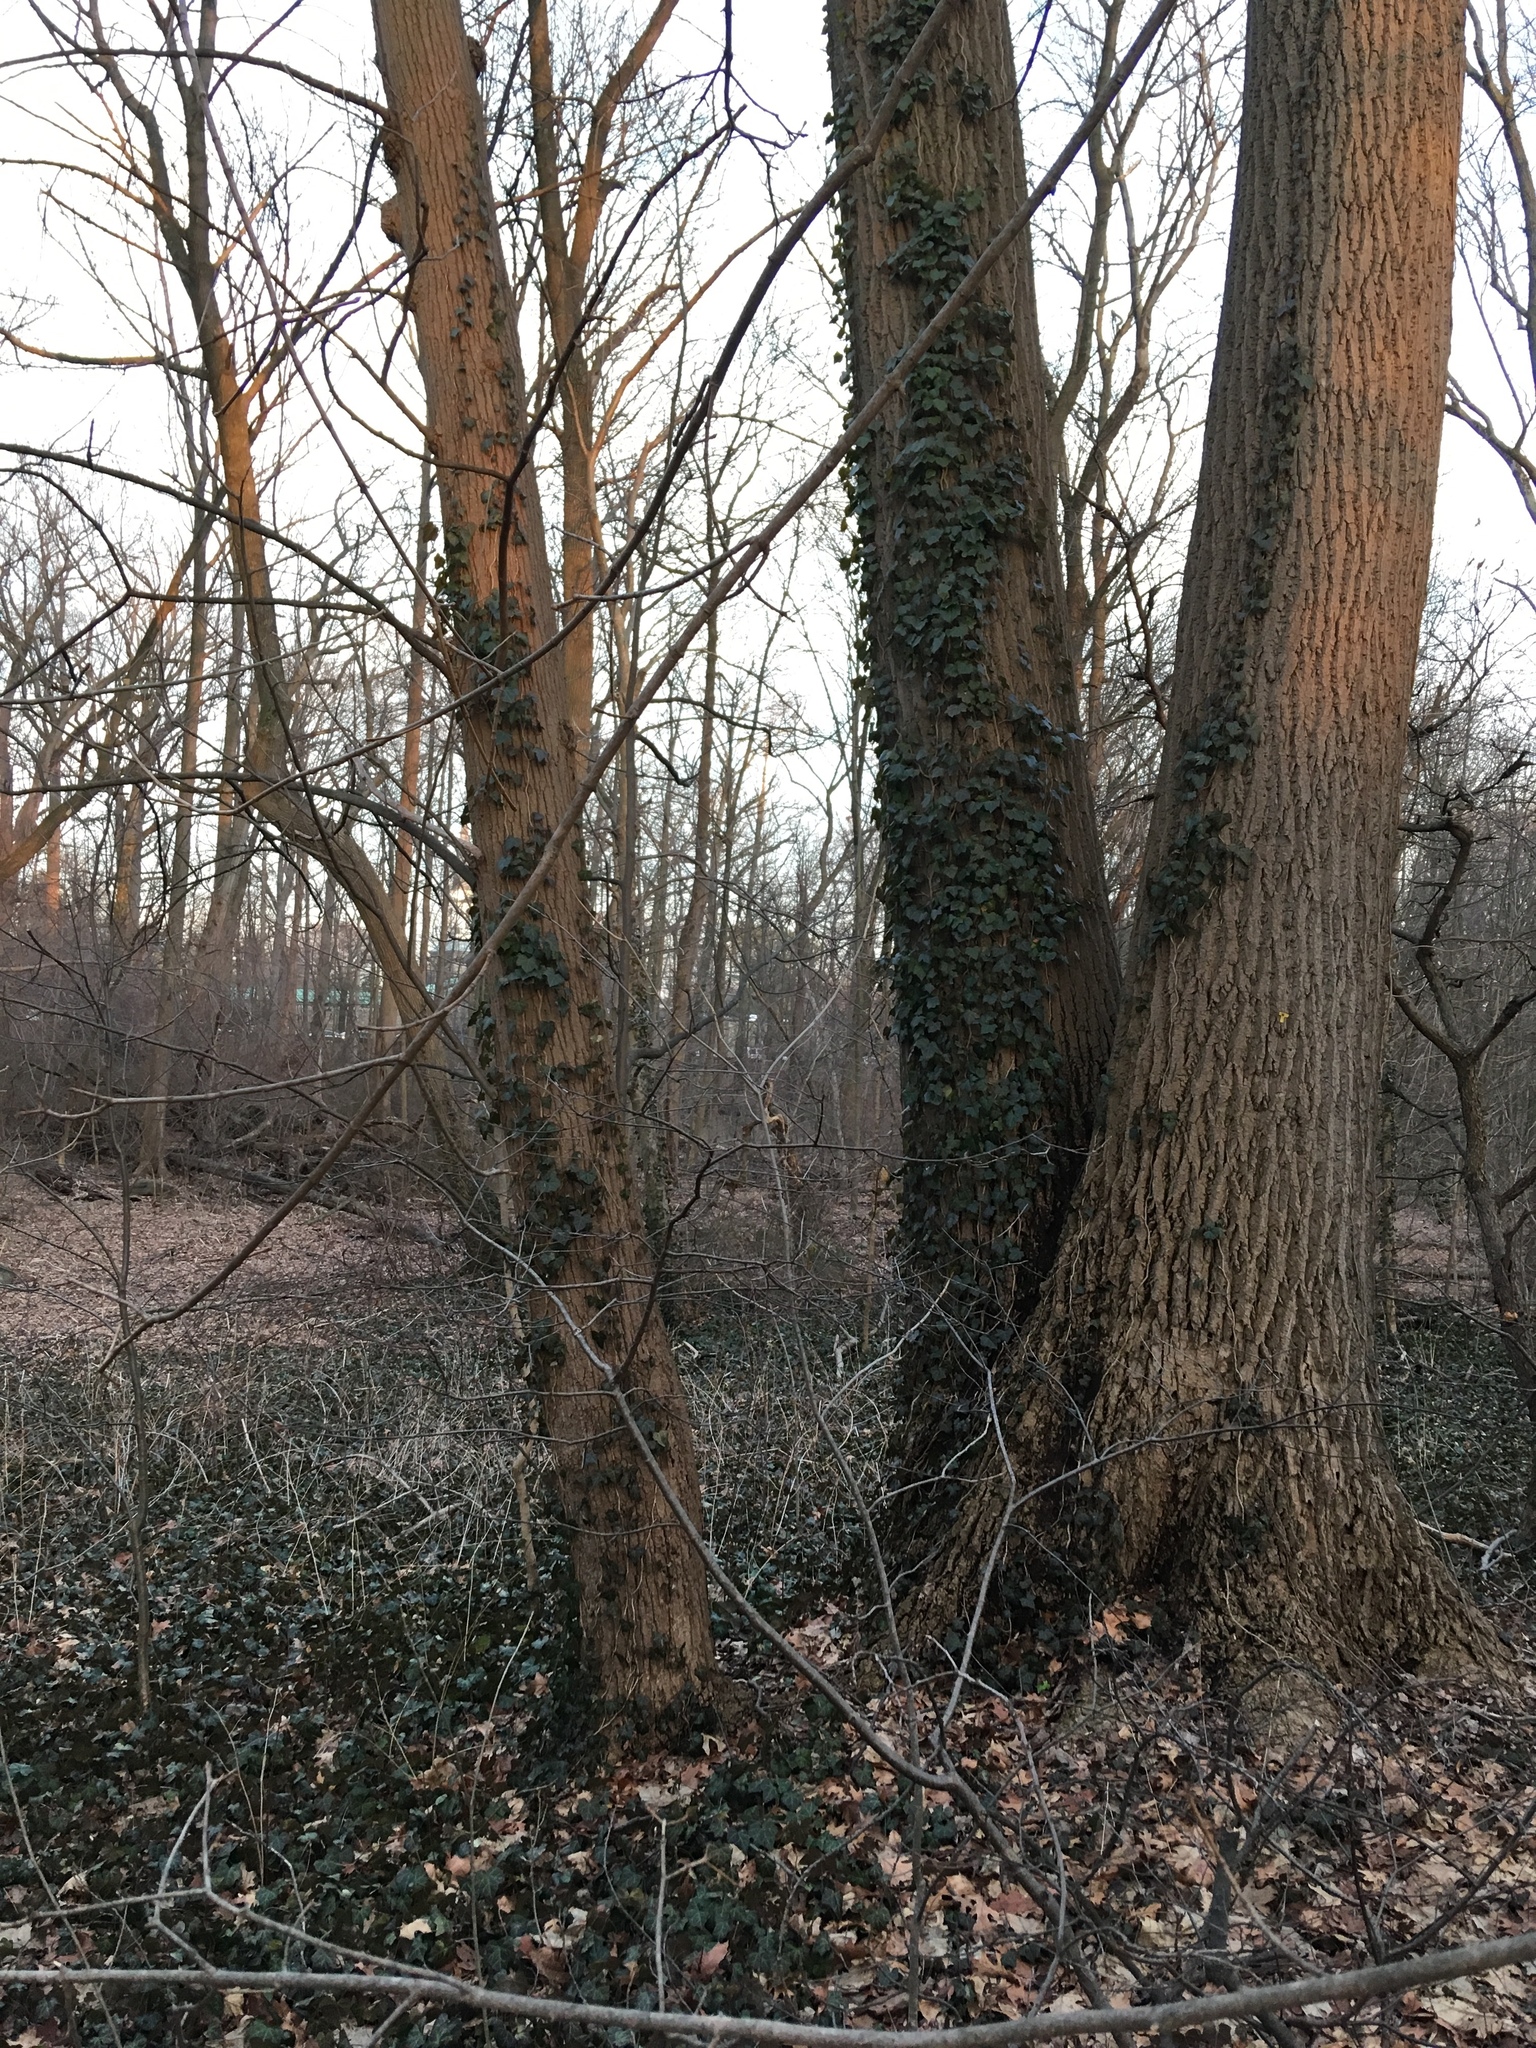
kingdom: Plantae
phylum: Tracheophyta
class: Magnoliopsida
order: Apiales
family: Araliaceae
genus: Hedera
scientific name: Hedera helix
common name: Ivy
